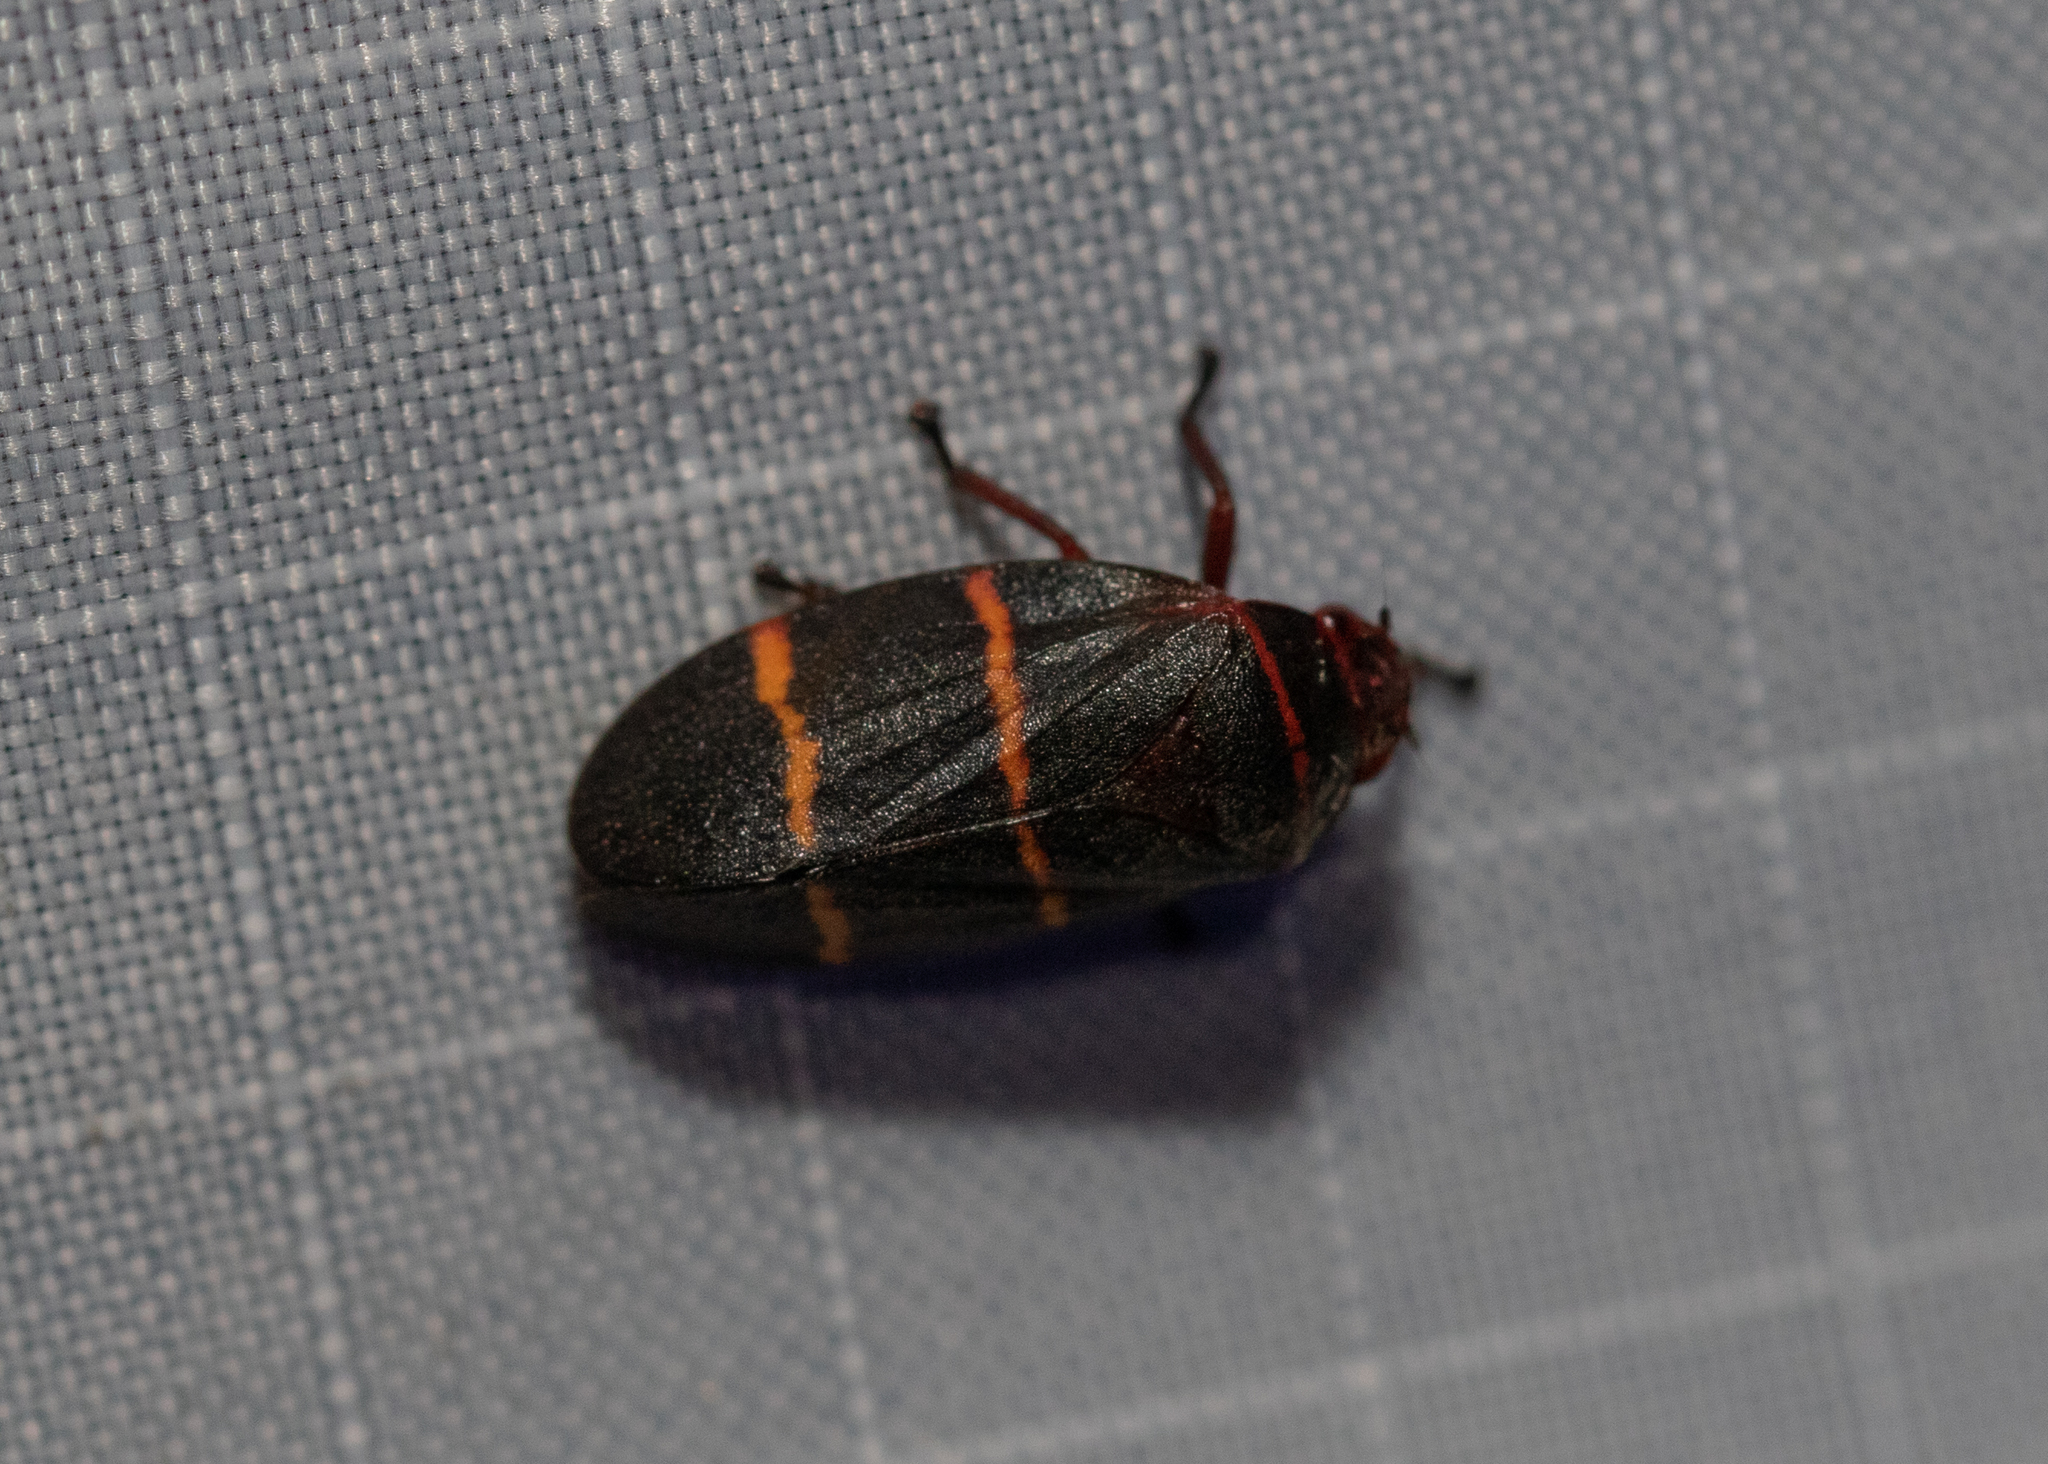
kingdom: Animalia
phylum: Arthropoda
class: Insecta
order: Hemiptera
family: Cercopidae
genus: Prosapia
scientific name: Prosapia bicincta
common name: Twolined spittlebug
